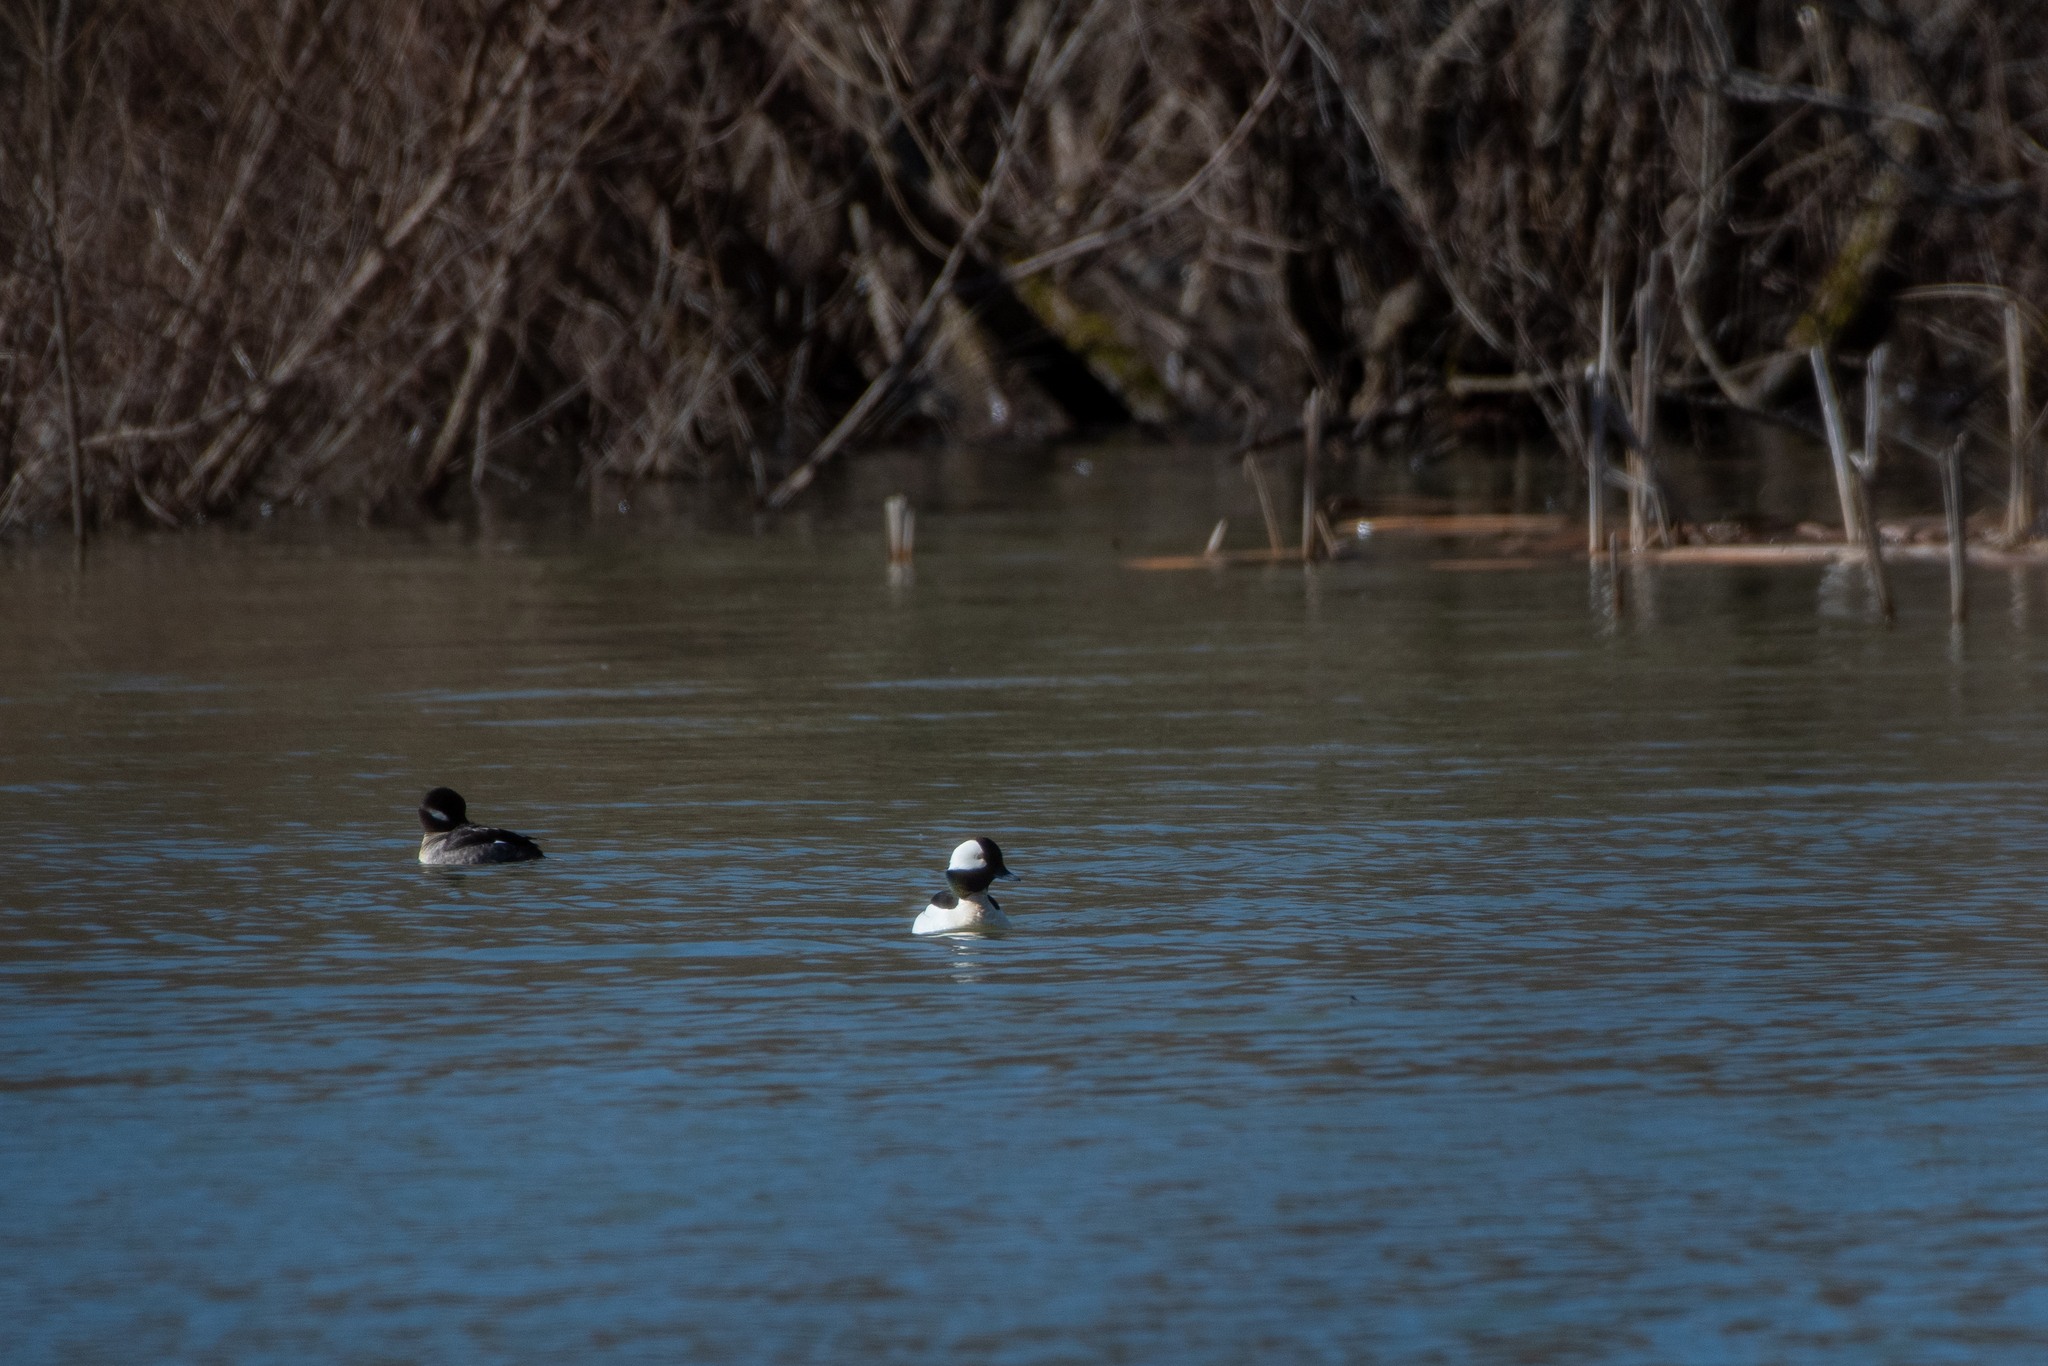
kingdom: Animalia
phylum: Chordata
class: Aves
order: Anseriformes
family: Anatidae
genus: Bucephala
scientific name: Bucephala albeola
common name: Bufflehead
